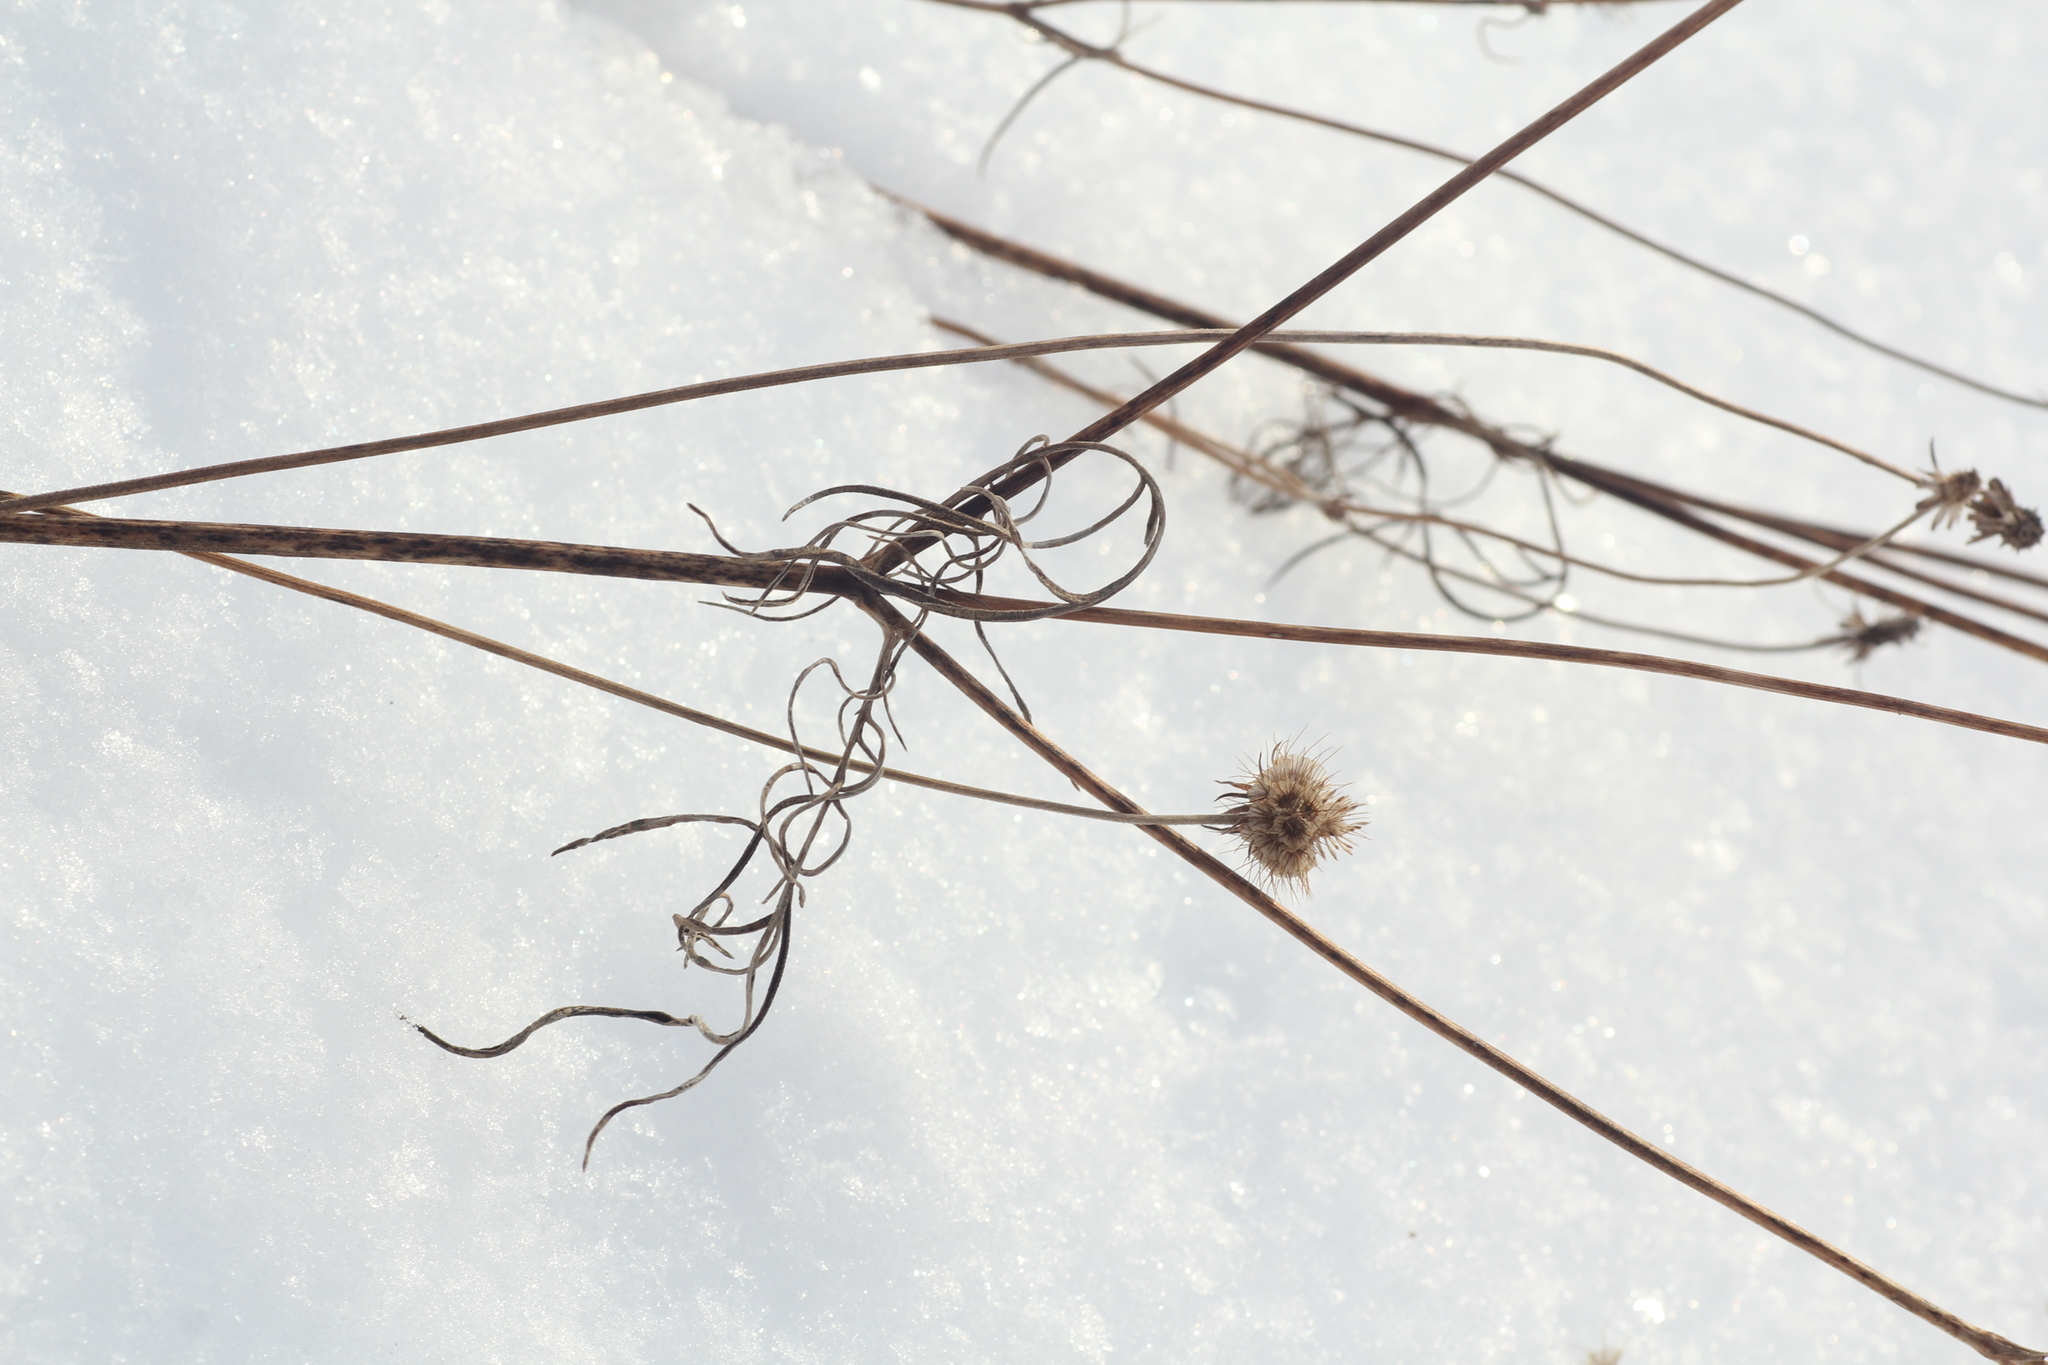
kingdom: Plantae
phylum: Tracheophyta
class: Magnoliopsida
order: Dipsacales
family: Caprifoliaceae
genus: Scabiosa
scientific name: Scabiosa ochroleuca
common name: Cream pincushions
